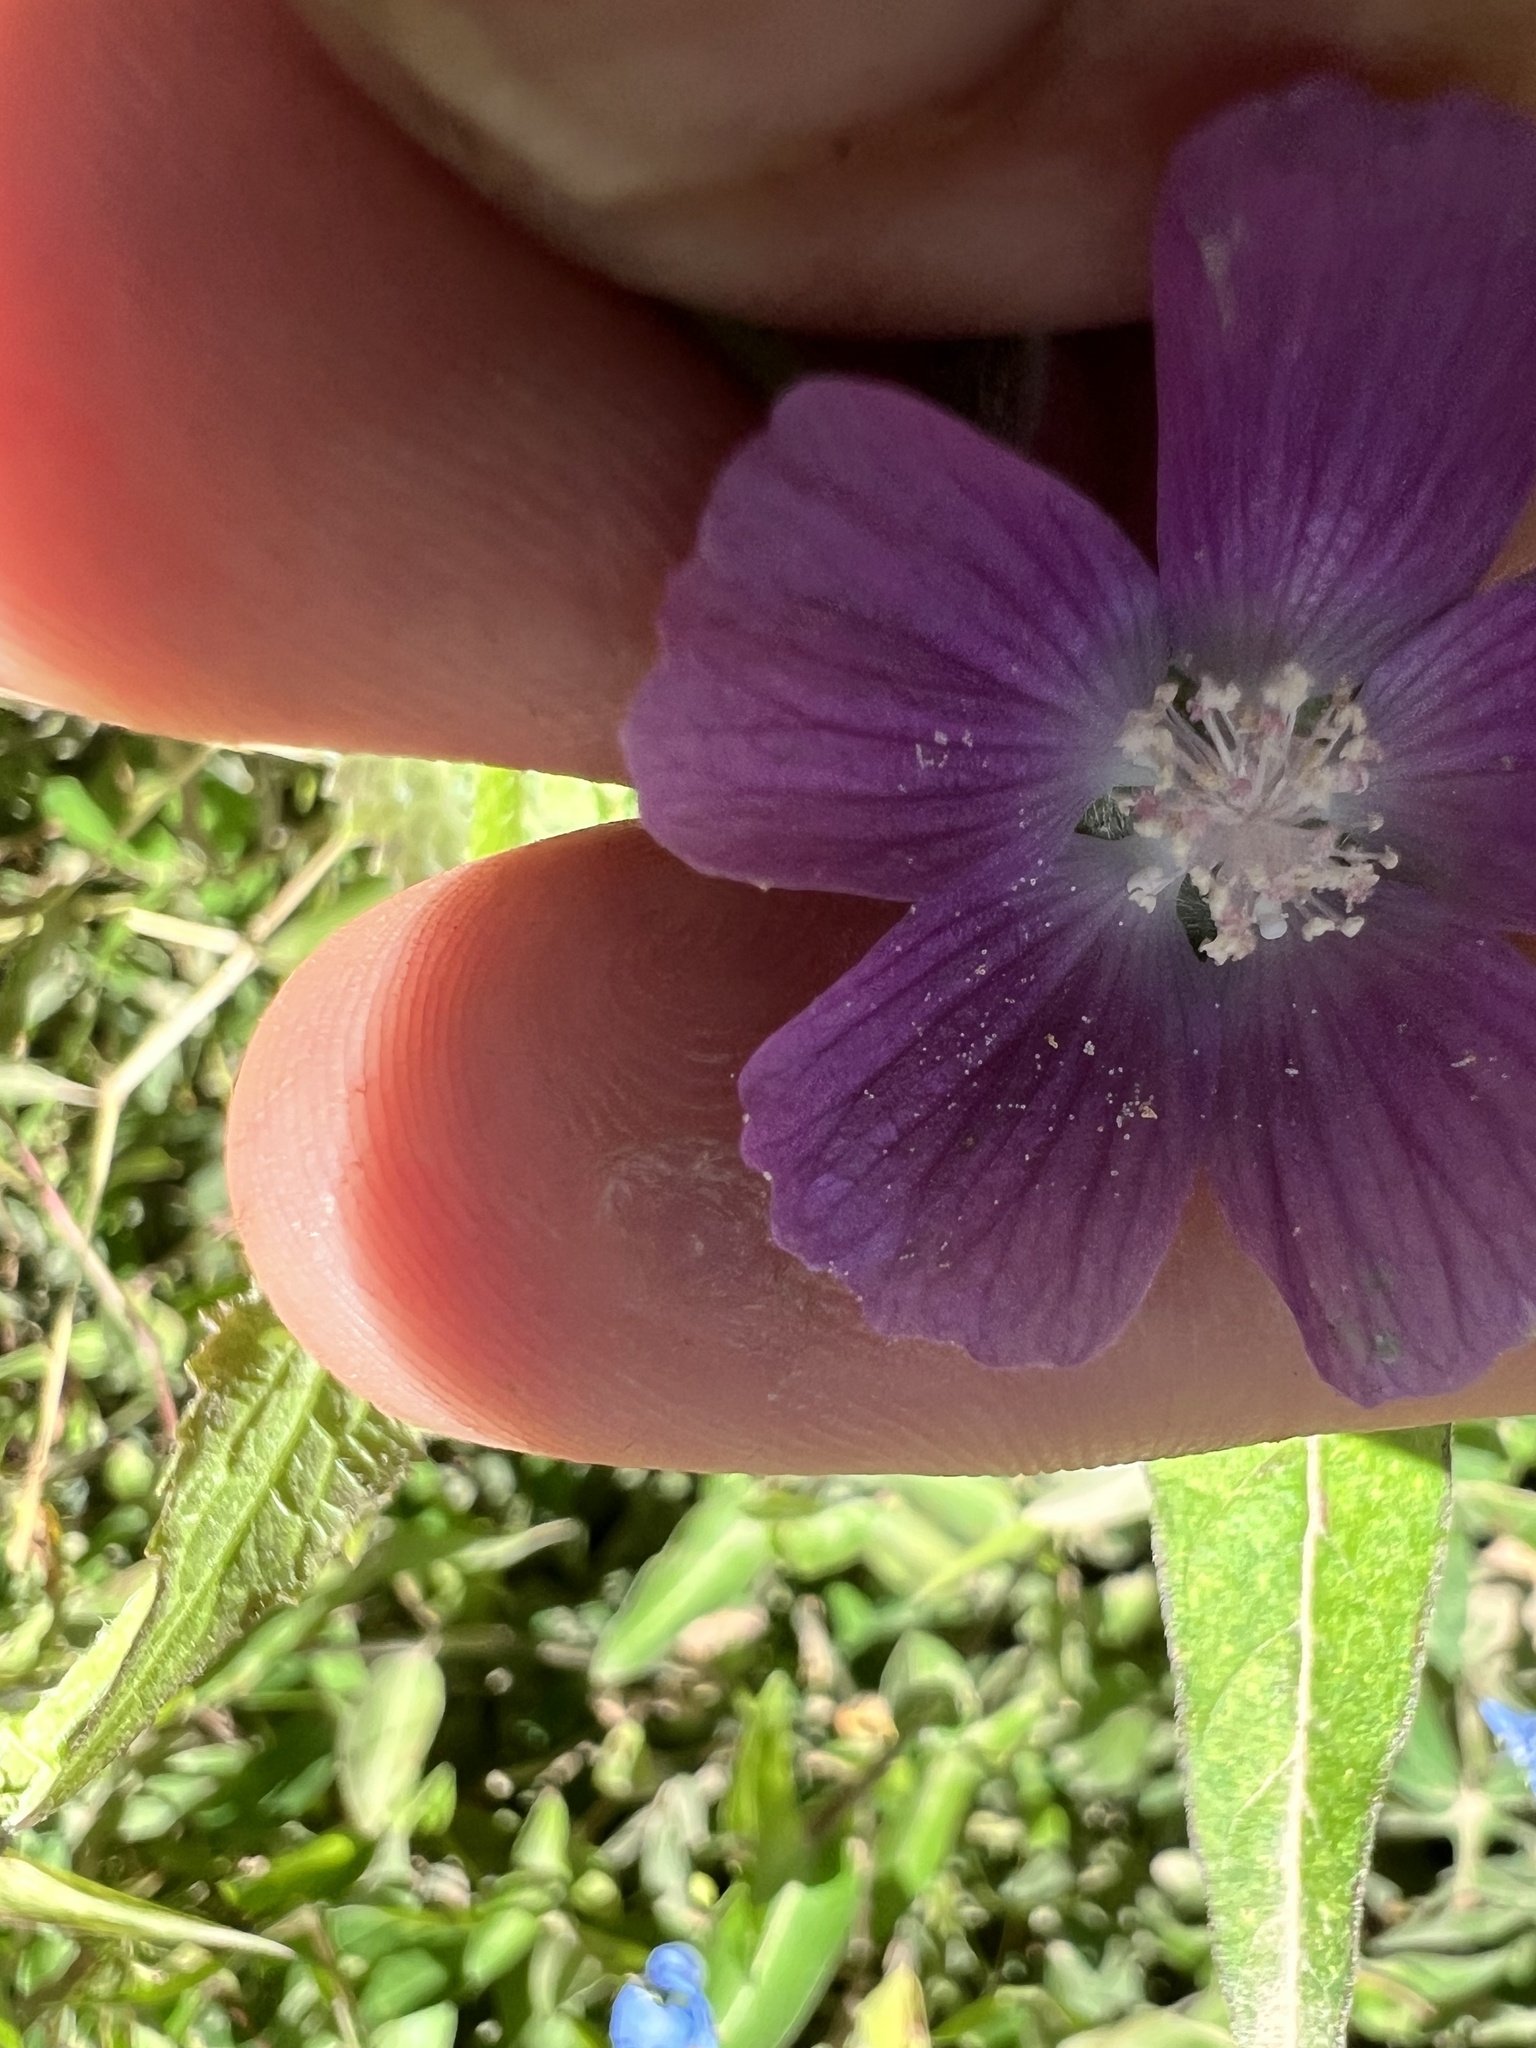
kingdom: Plantae
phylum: Tracheophyta
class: Magnoliopsida
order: Malvales
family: Malvaceae
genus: Anoda
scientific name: Anoda cristata
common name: Spurred anoda
